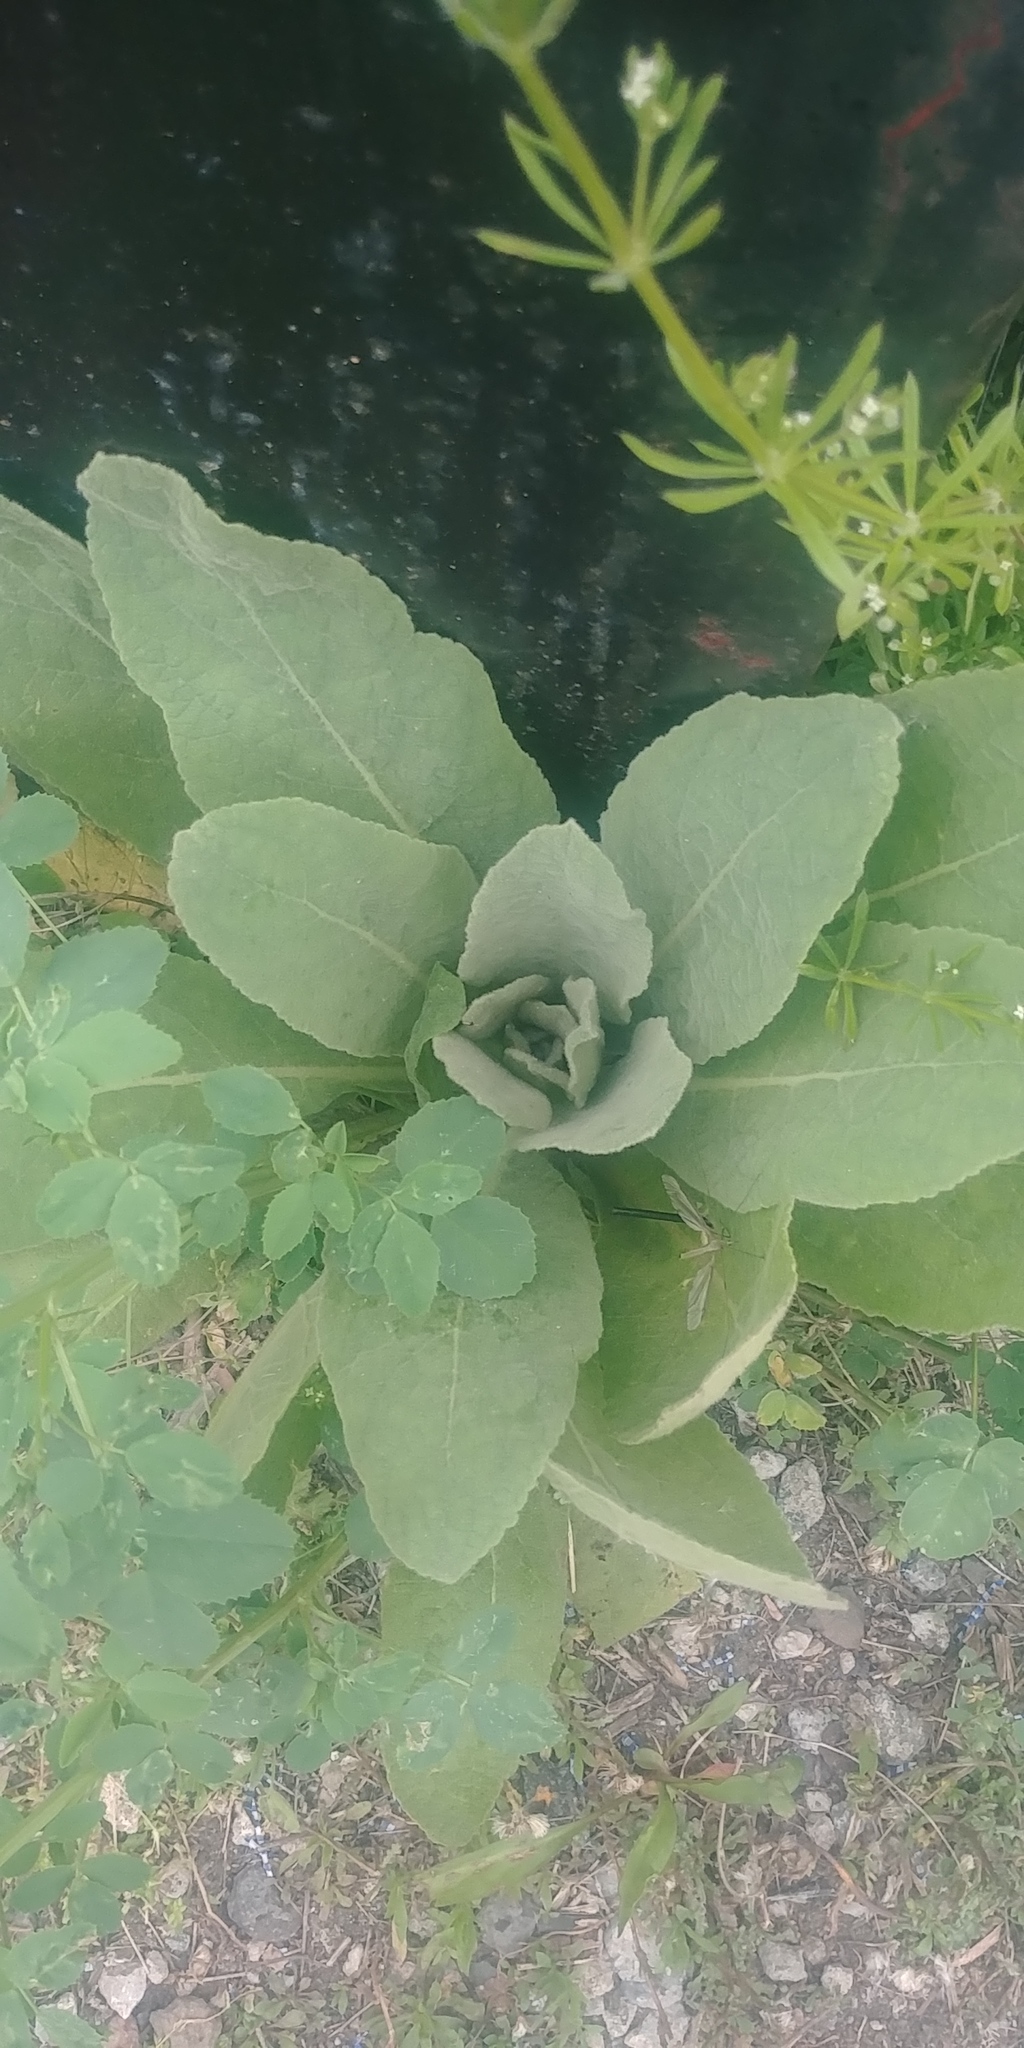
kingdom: Plantae
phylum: Tracheophyta
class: Magnoliopsida
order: Lamiales
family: Scrophulariaceae
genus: Verbascum
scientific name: Verbascum thapsus
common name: Common mullein
